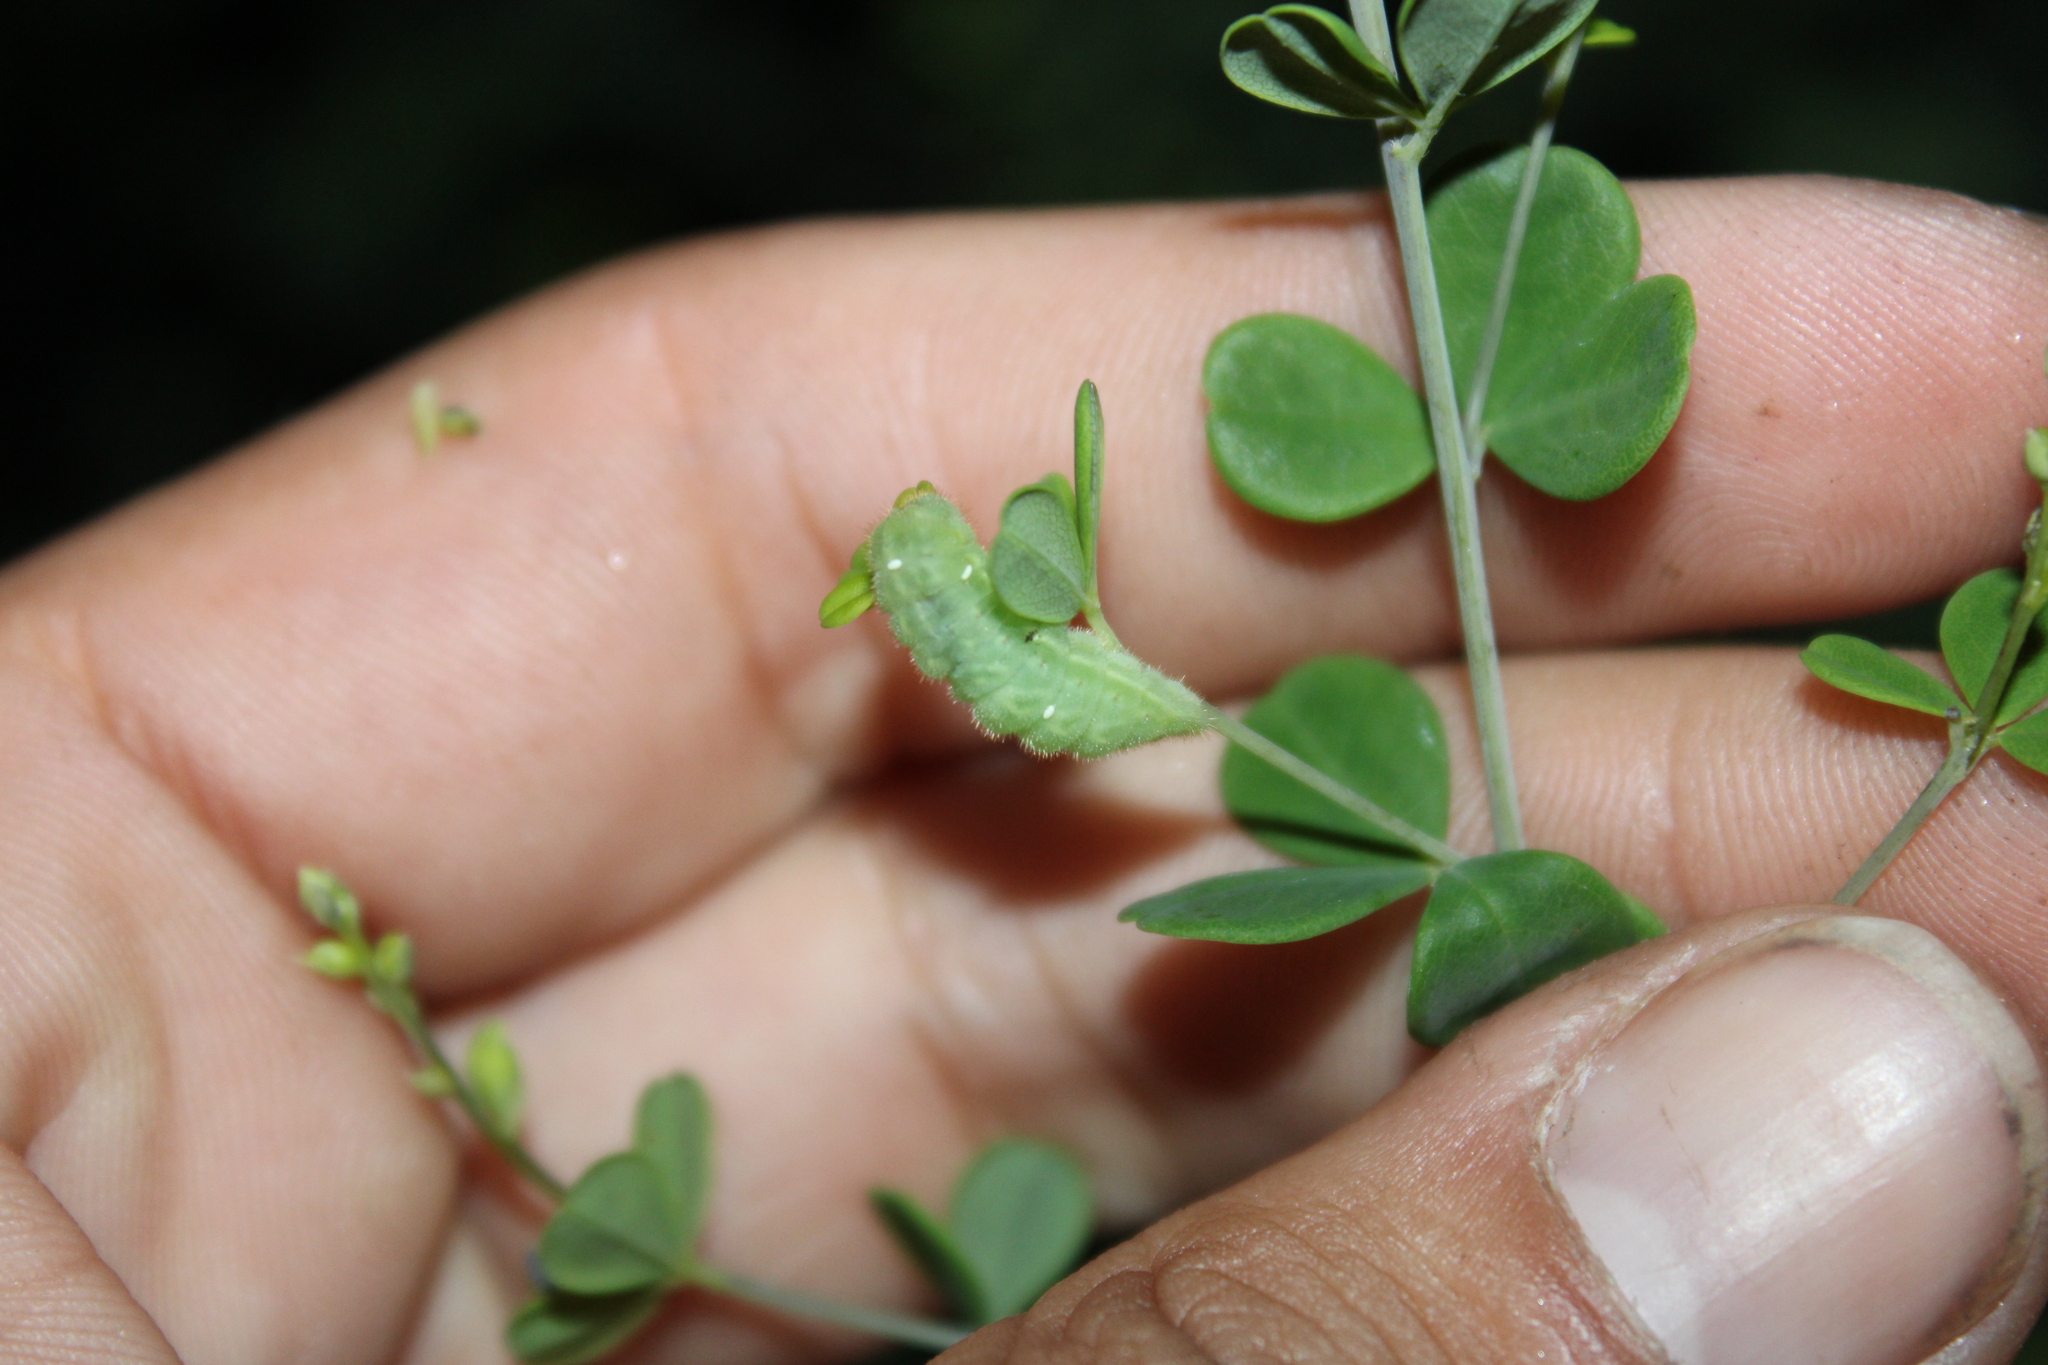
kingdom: Animalia
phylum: Arthropoda
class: Insecta
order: Lepidoptera
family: Lycaenidae
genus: Thecla
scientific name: Thecla irus
